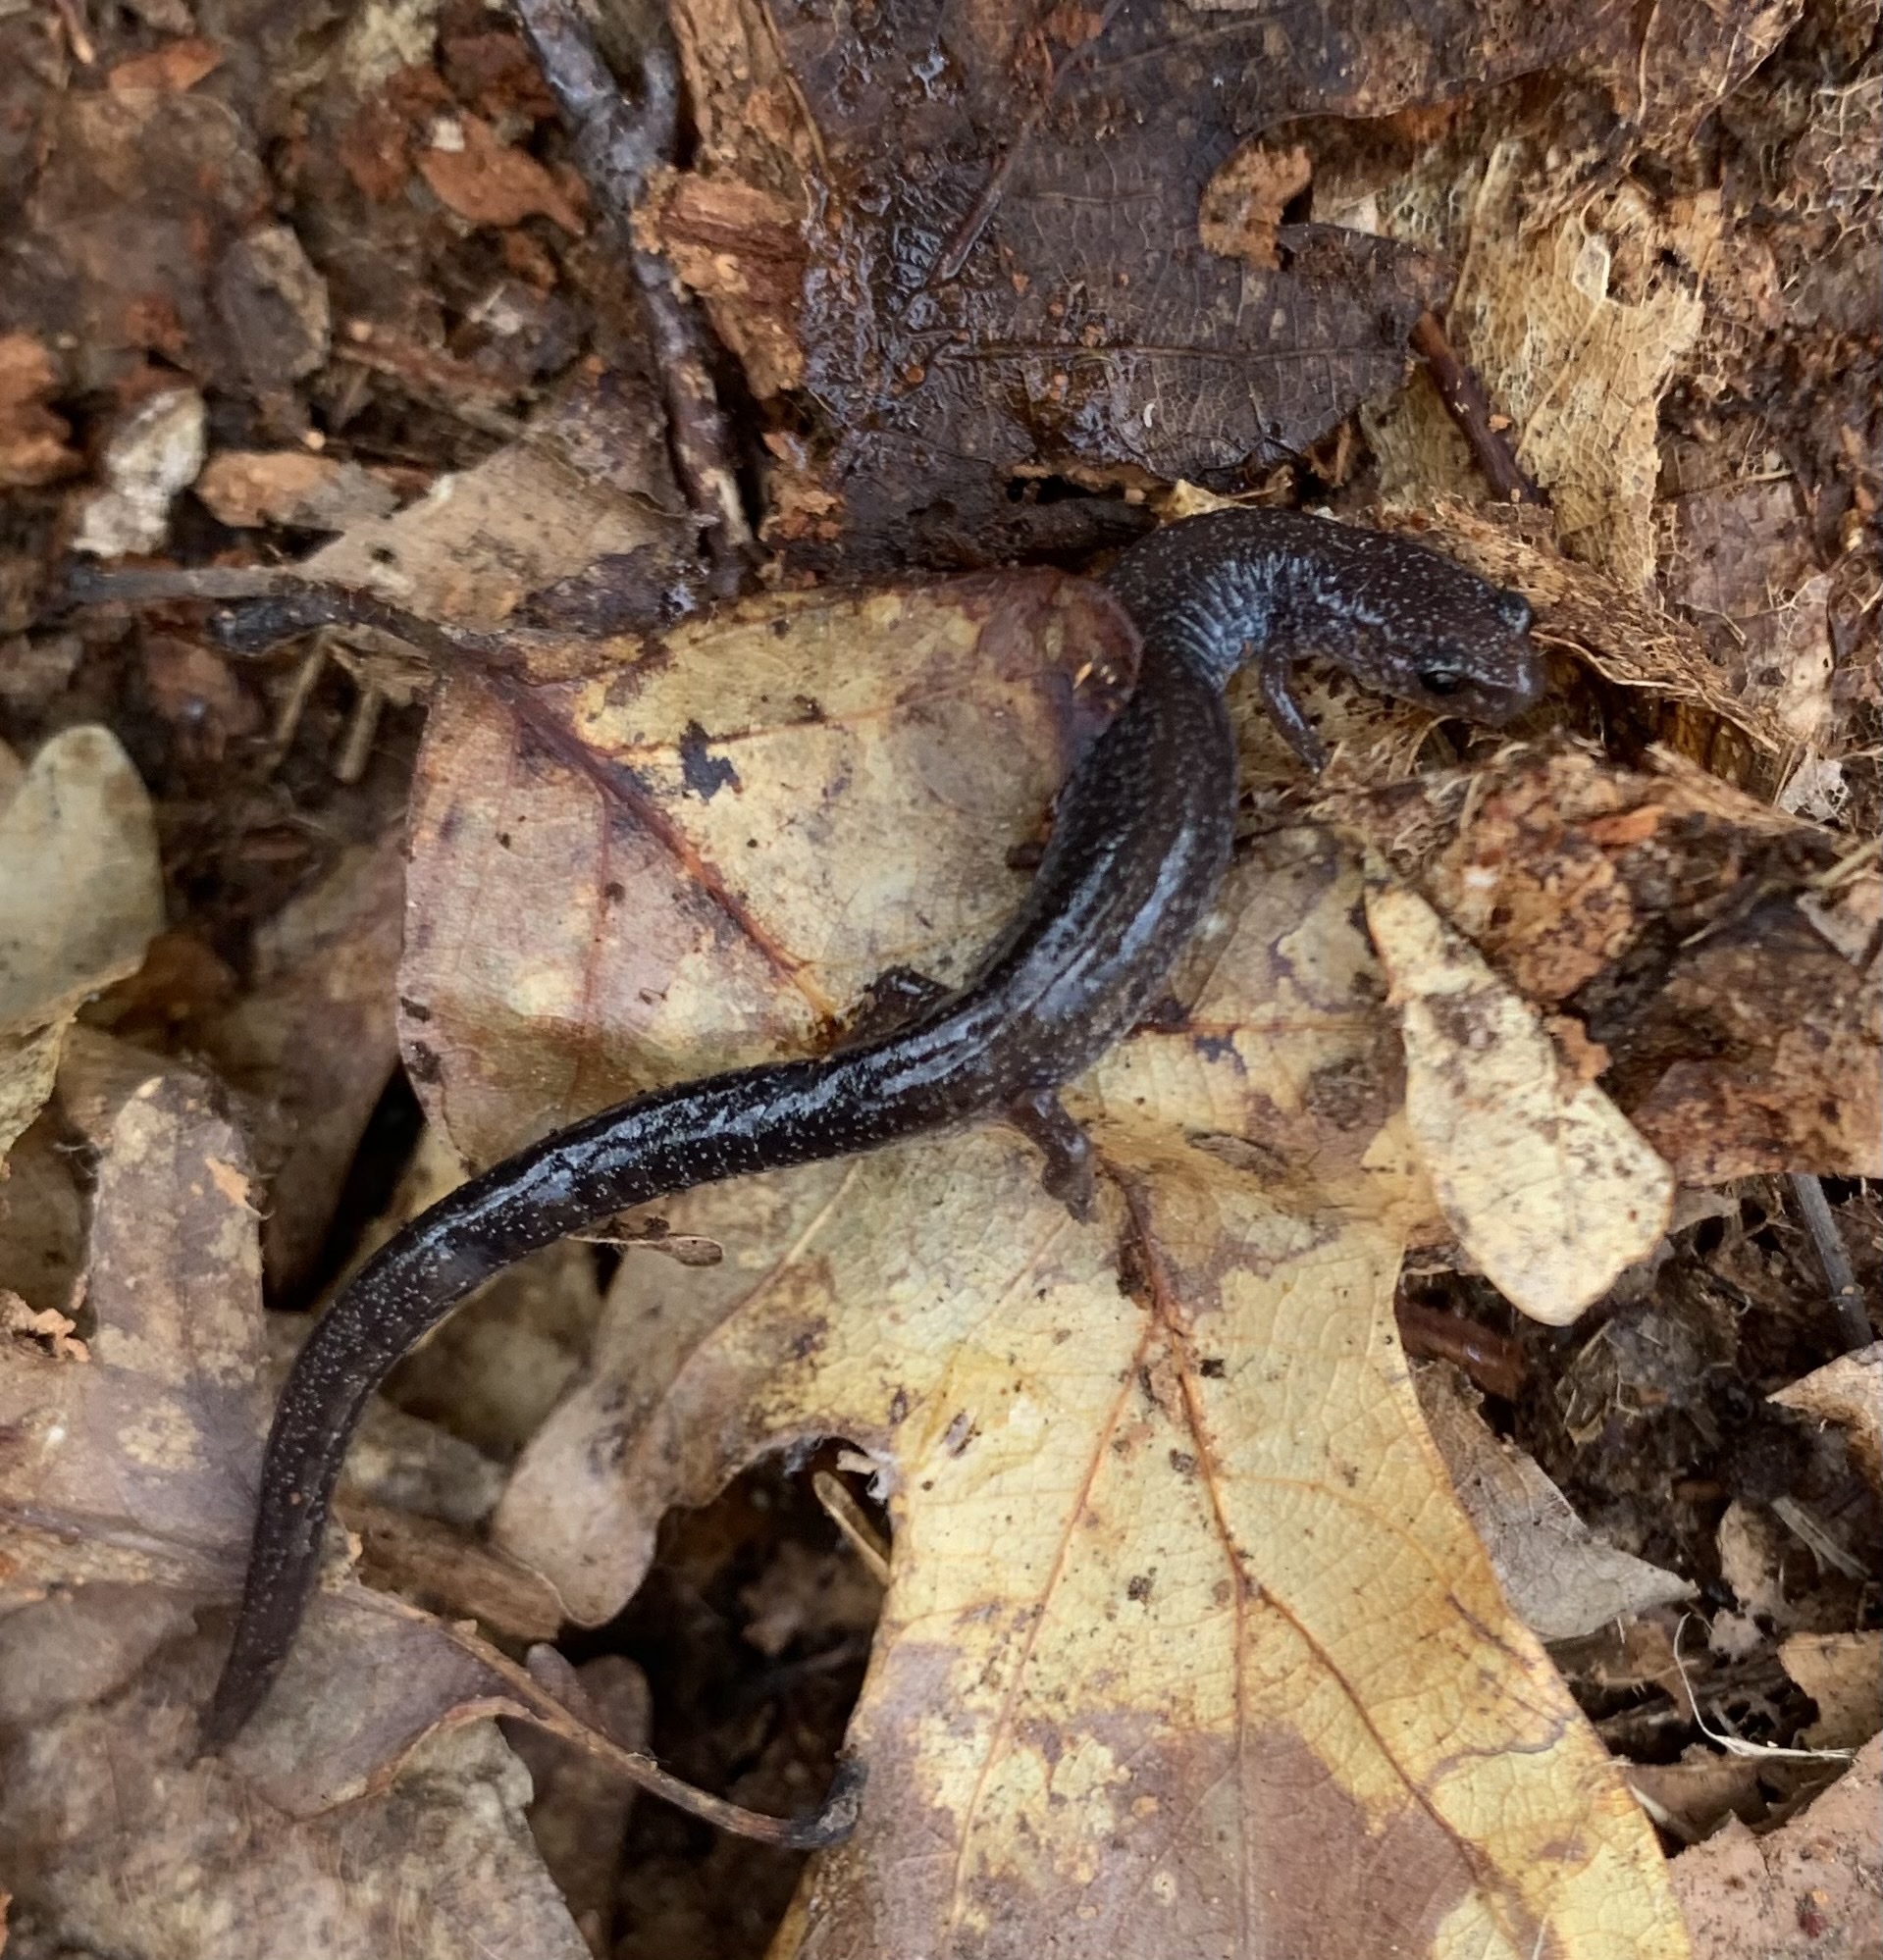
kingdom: Animalia
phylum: Chordata
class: Amphibia
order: Caudata
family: Plethodontidae
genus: Plethodon
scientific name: Plethodon cinereus
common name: Redback salamander
